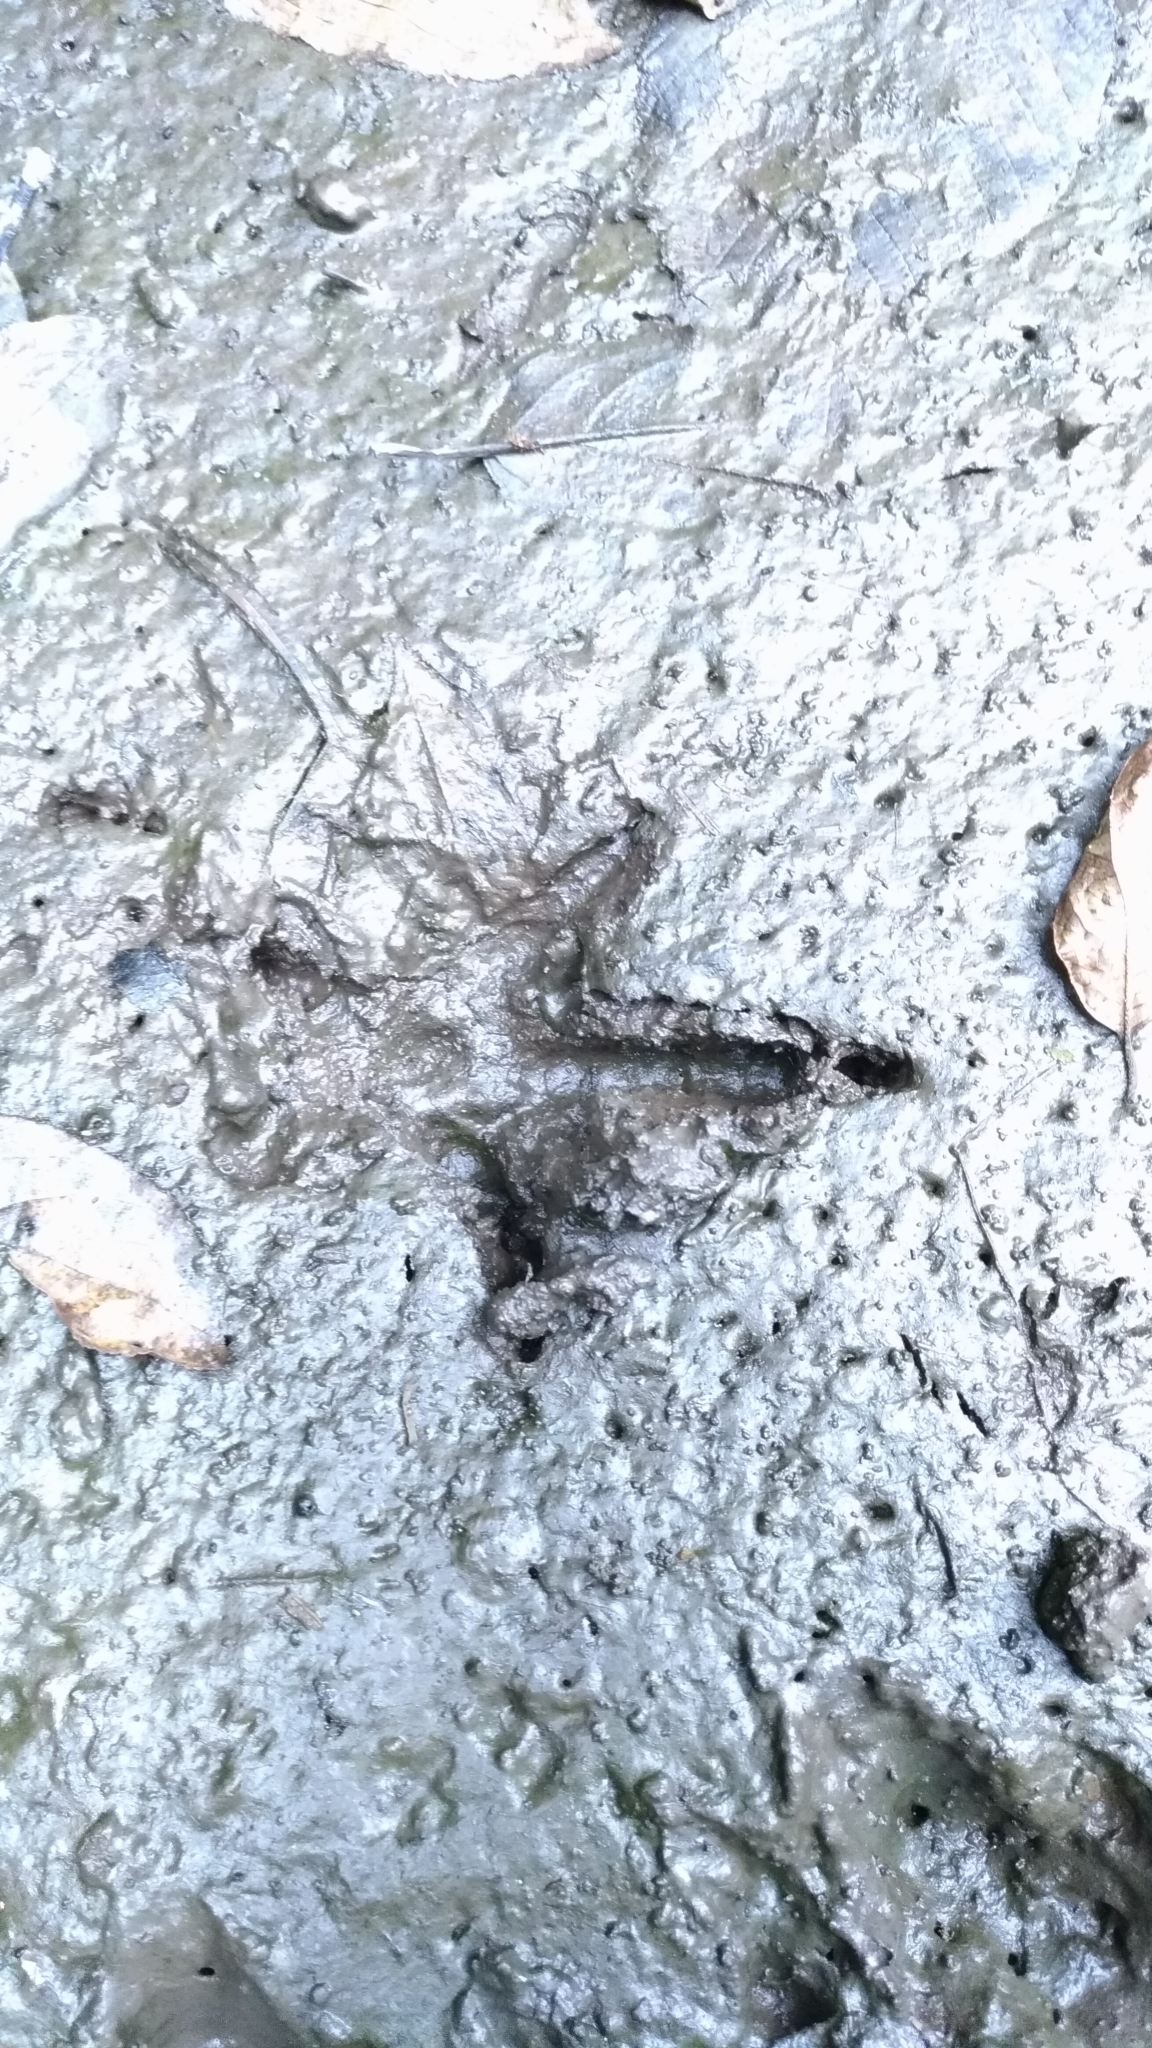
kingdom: Animalia
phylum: Chordata
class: Aves
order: Galliformes
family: Phasianidae
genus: Lophura
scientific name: Lophura swinhoii
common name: Swinhoe's pheasant
